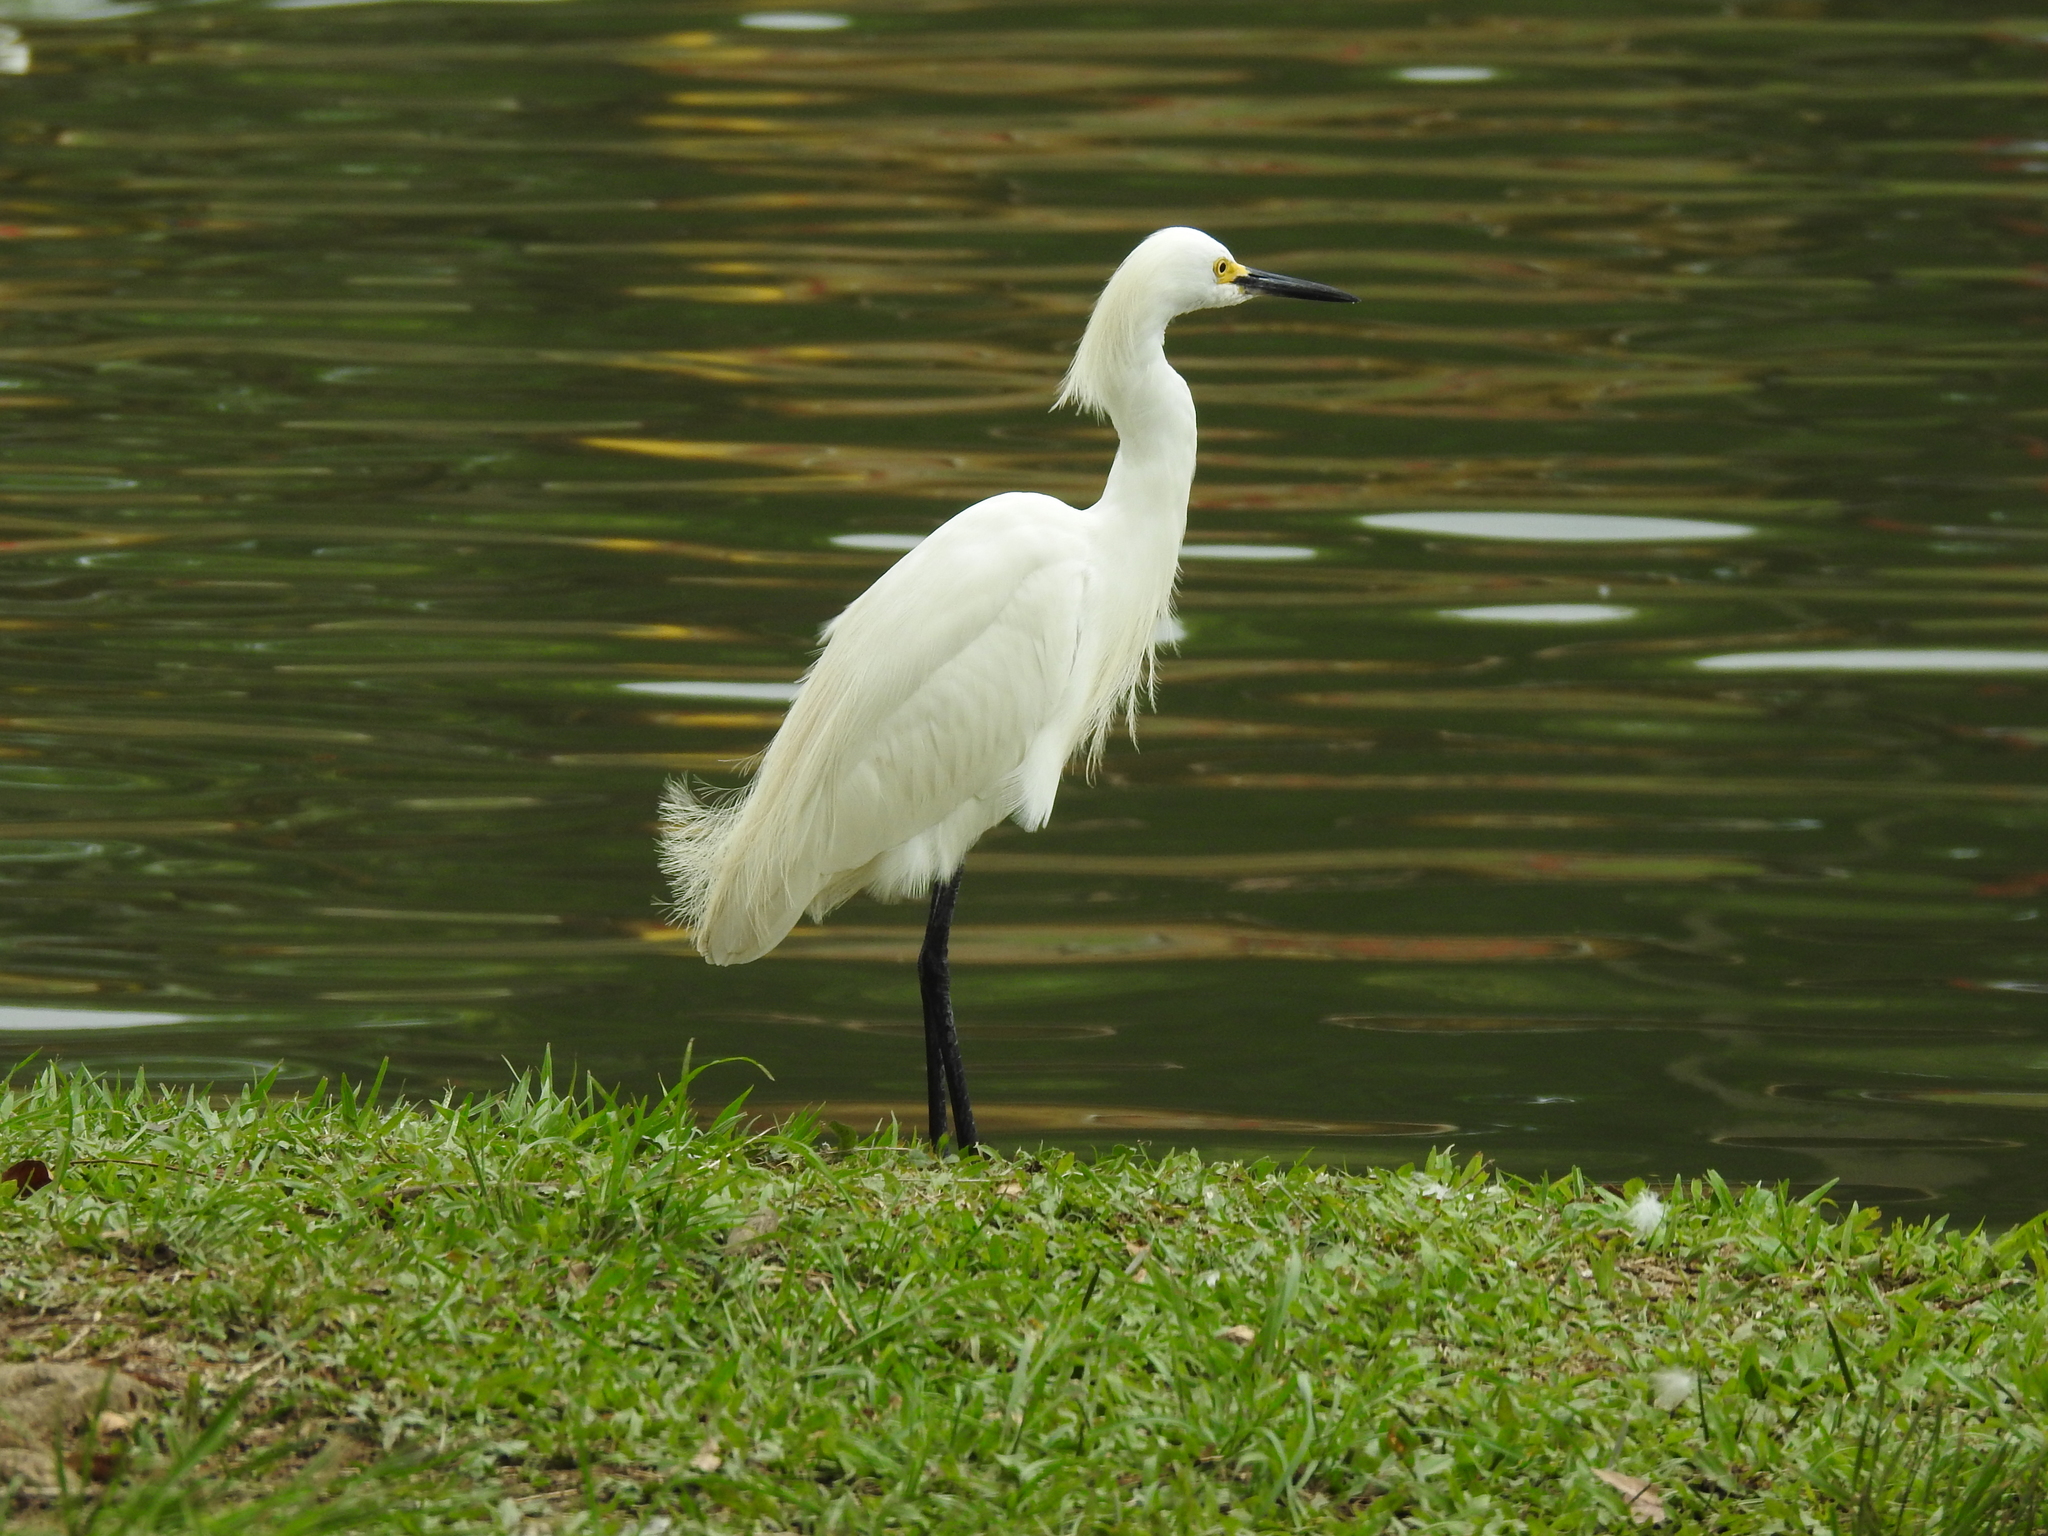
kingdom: Animalia
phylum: Chordata
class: Aves
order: Pelecaniformes
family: Ardeidae
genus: Egretta
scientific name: Egretta thula
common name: Snowy egret
